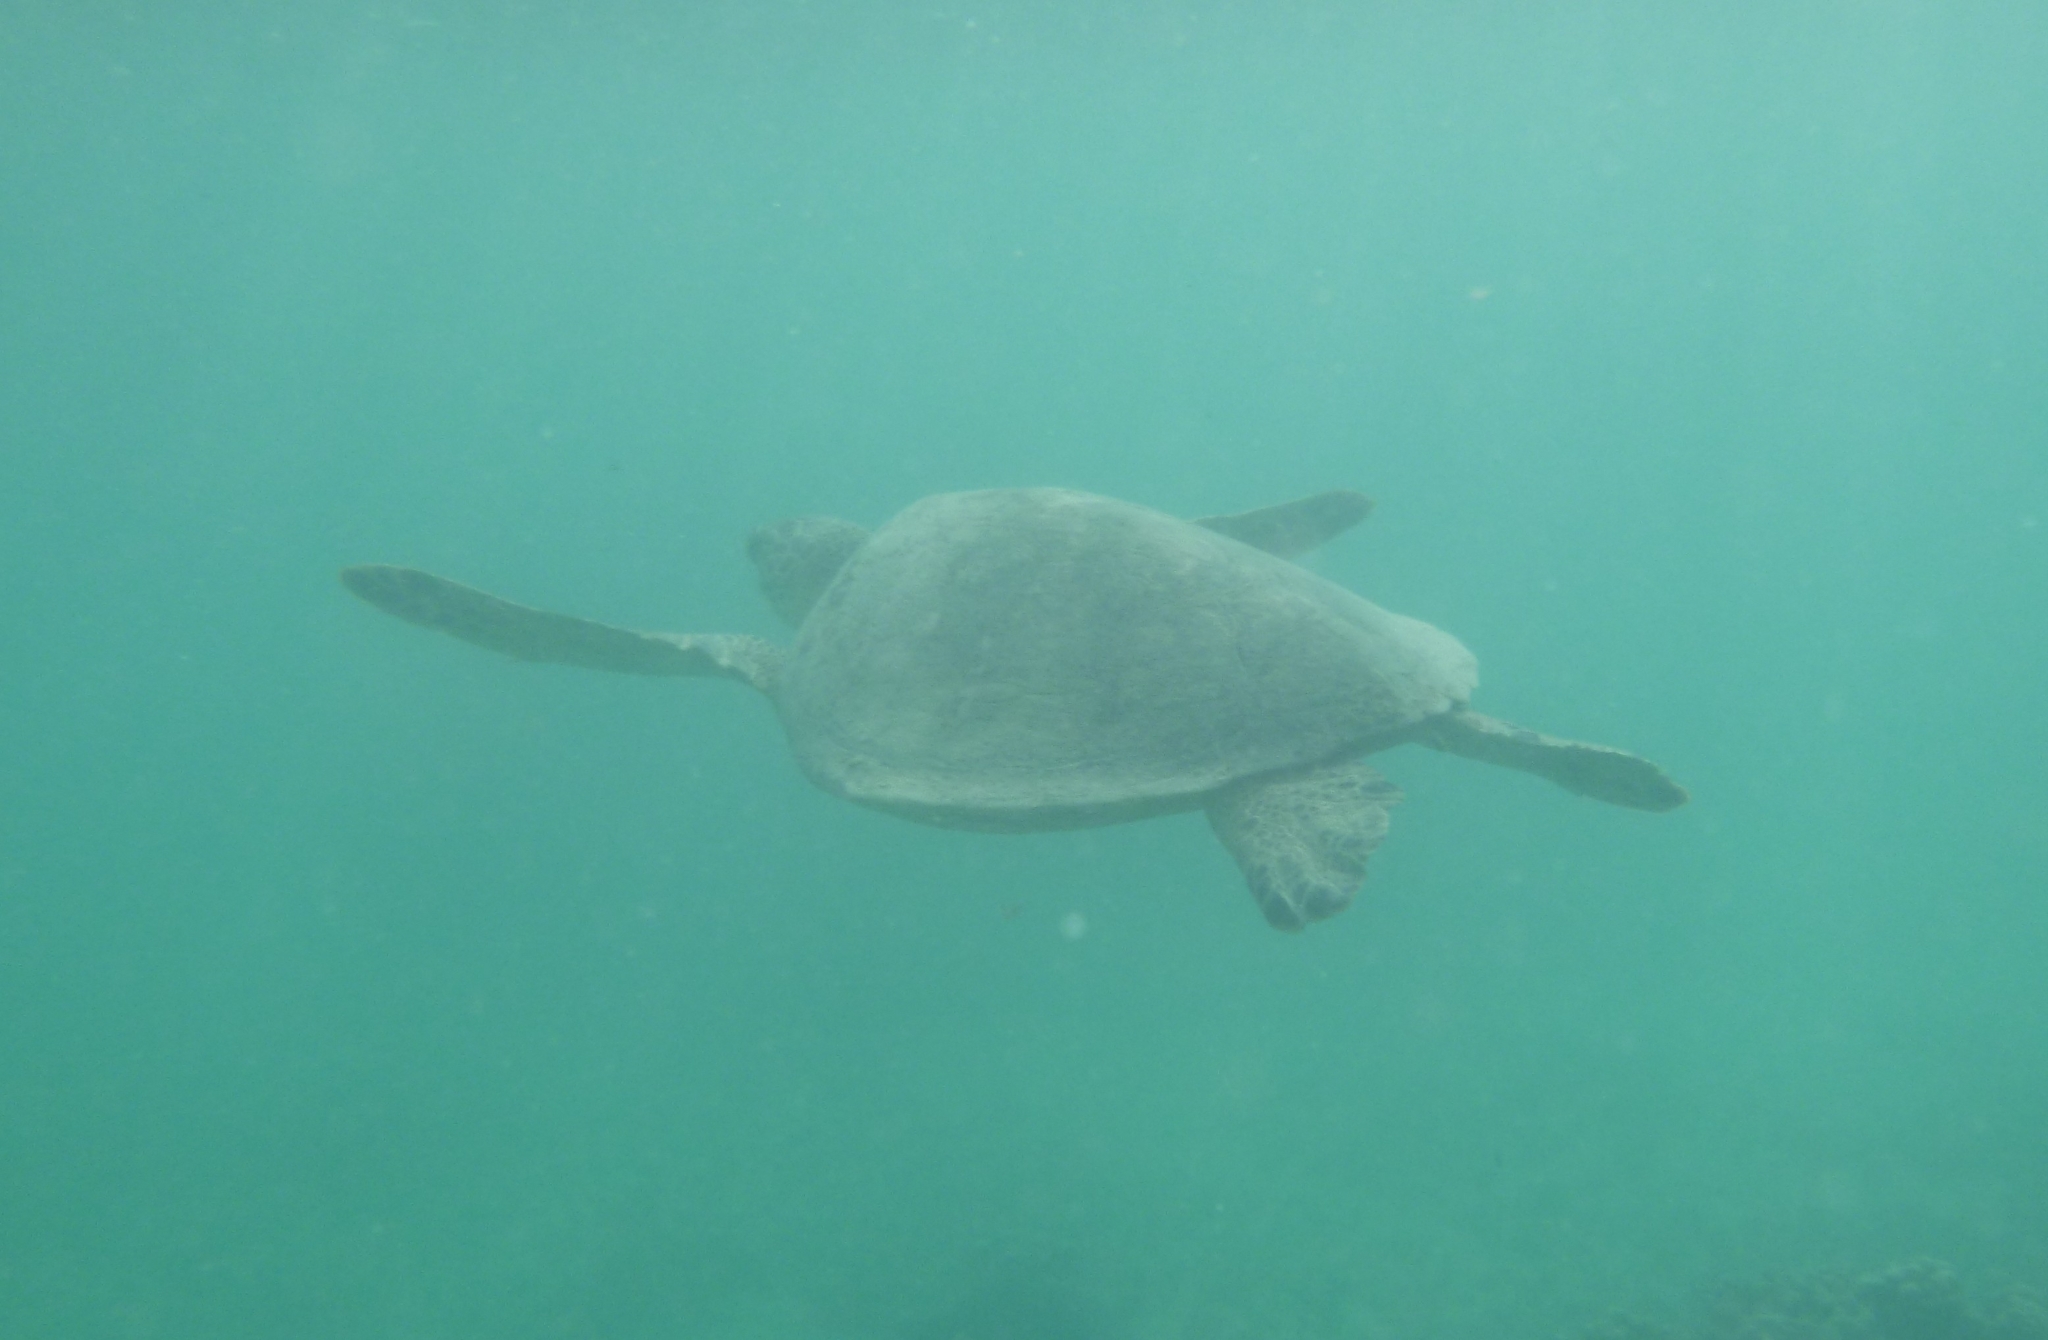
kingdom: Animalia
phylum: Chordata
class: Testudines
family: Cheloniidae
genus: Chelonia
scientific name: Chelonia mydas
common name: Green turtle
